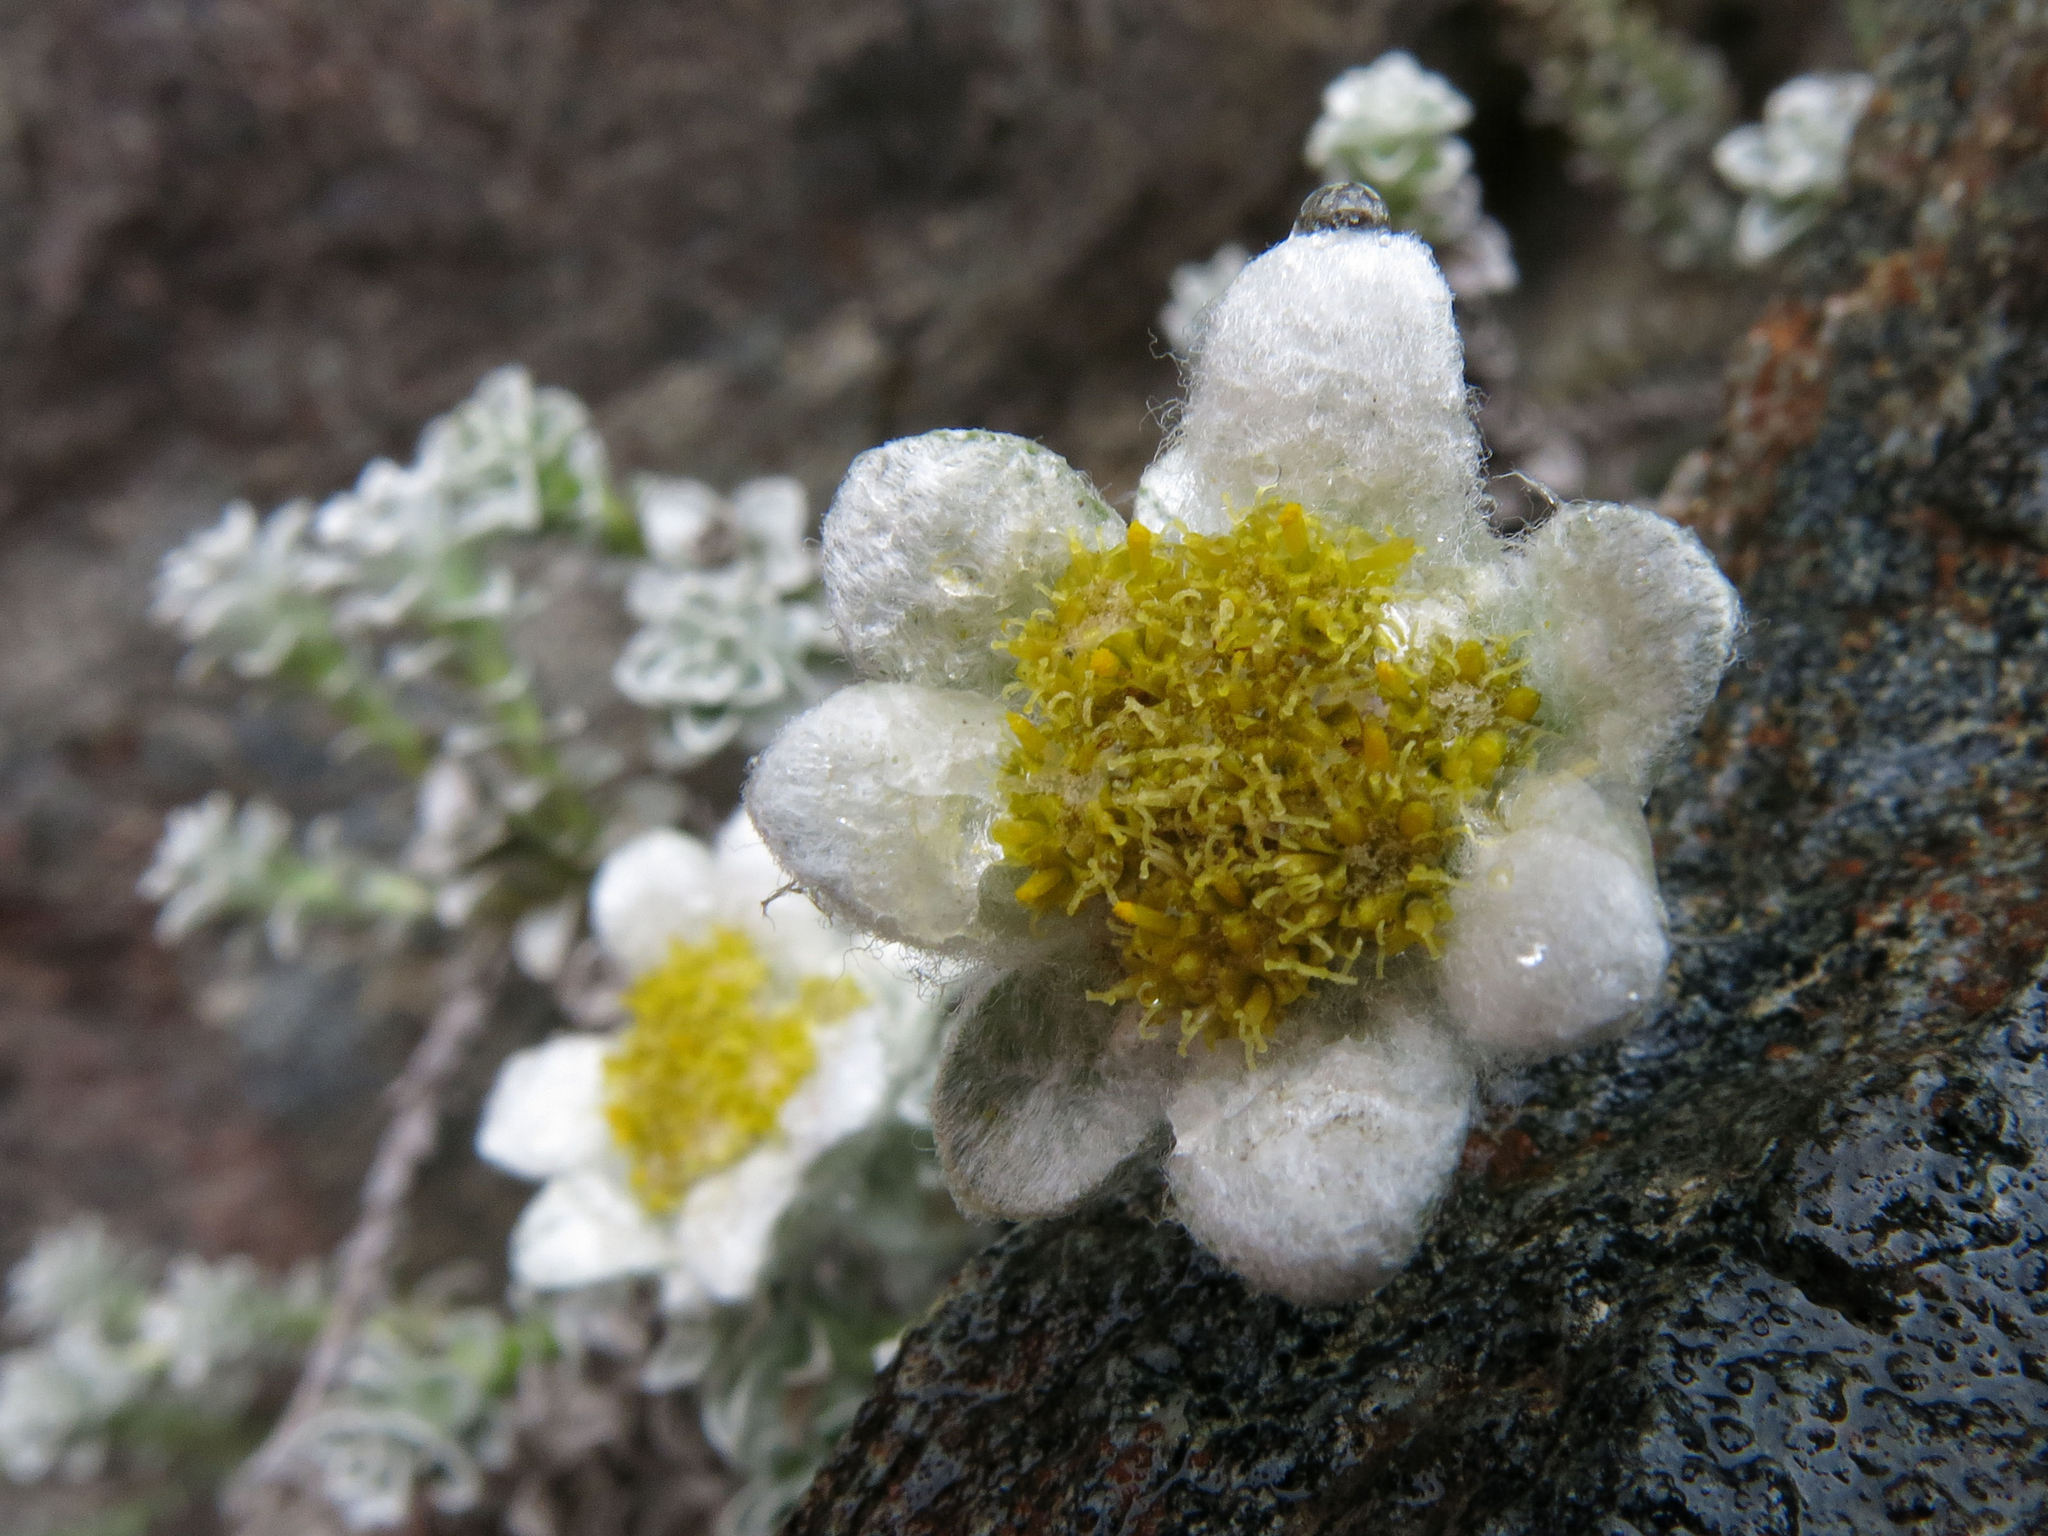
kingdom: Plantae
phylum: Tracheophyta
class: Magnoliopsida
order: Asterales
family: Asteraceae
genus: Leucogenes
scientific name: Leucogenes grandiceps
